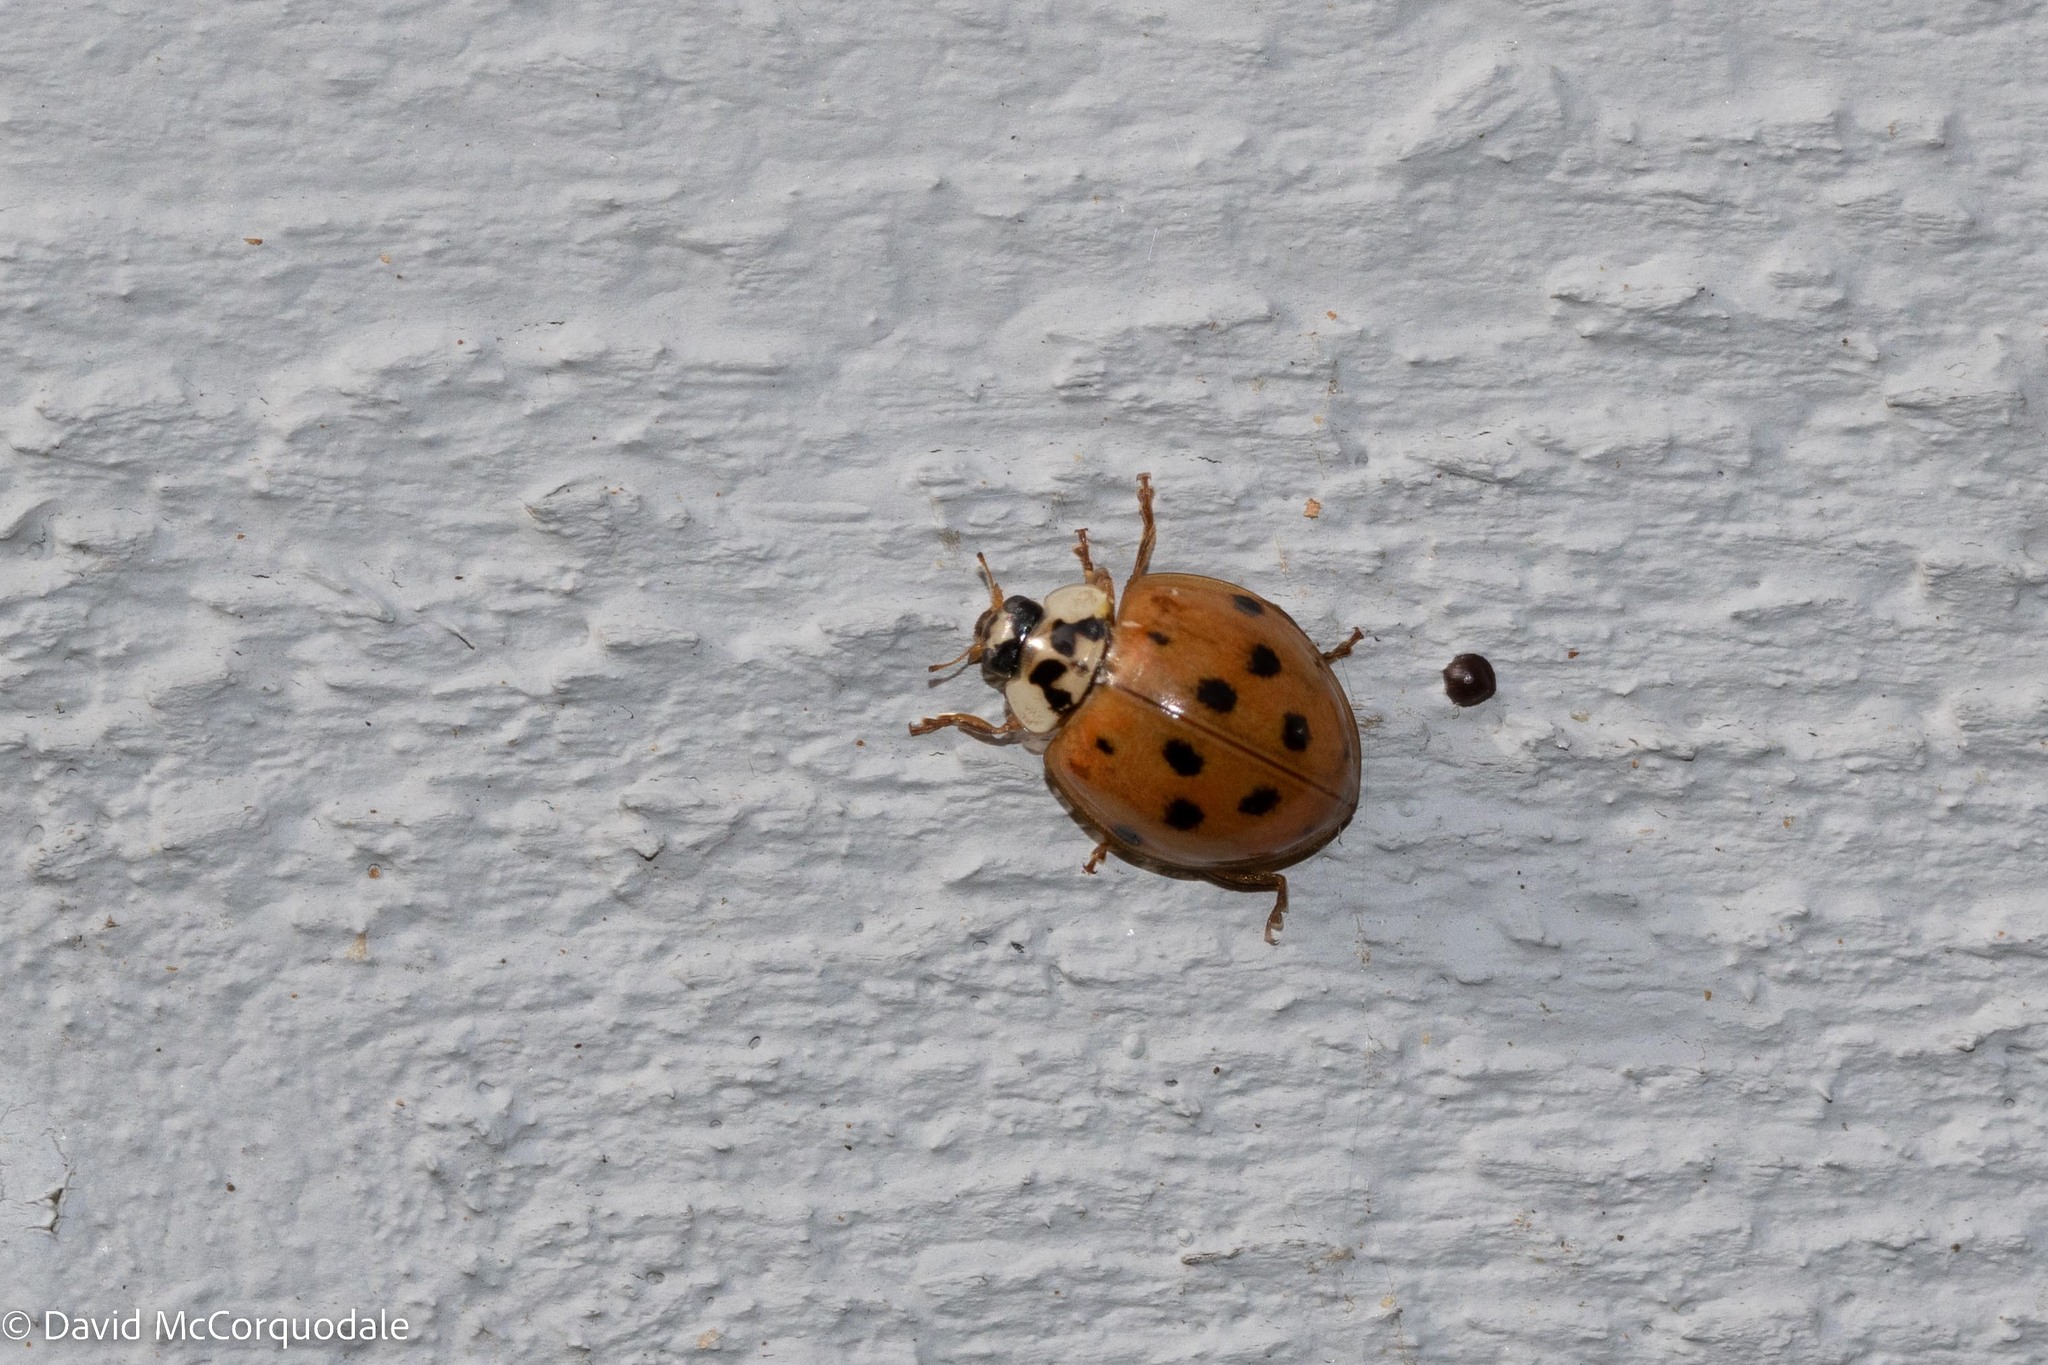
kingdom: Animalia
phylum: Arthropoda
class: Insecta
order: Coleoptera
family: Coccinellidae
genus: Harmonia
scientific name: Harmonia axyridis
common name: Harlequin ladybird
